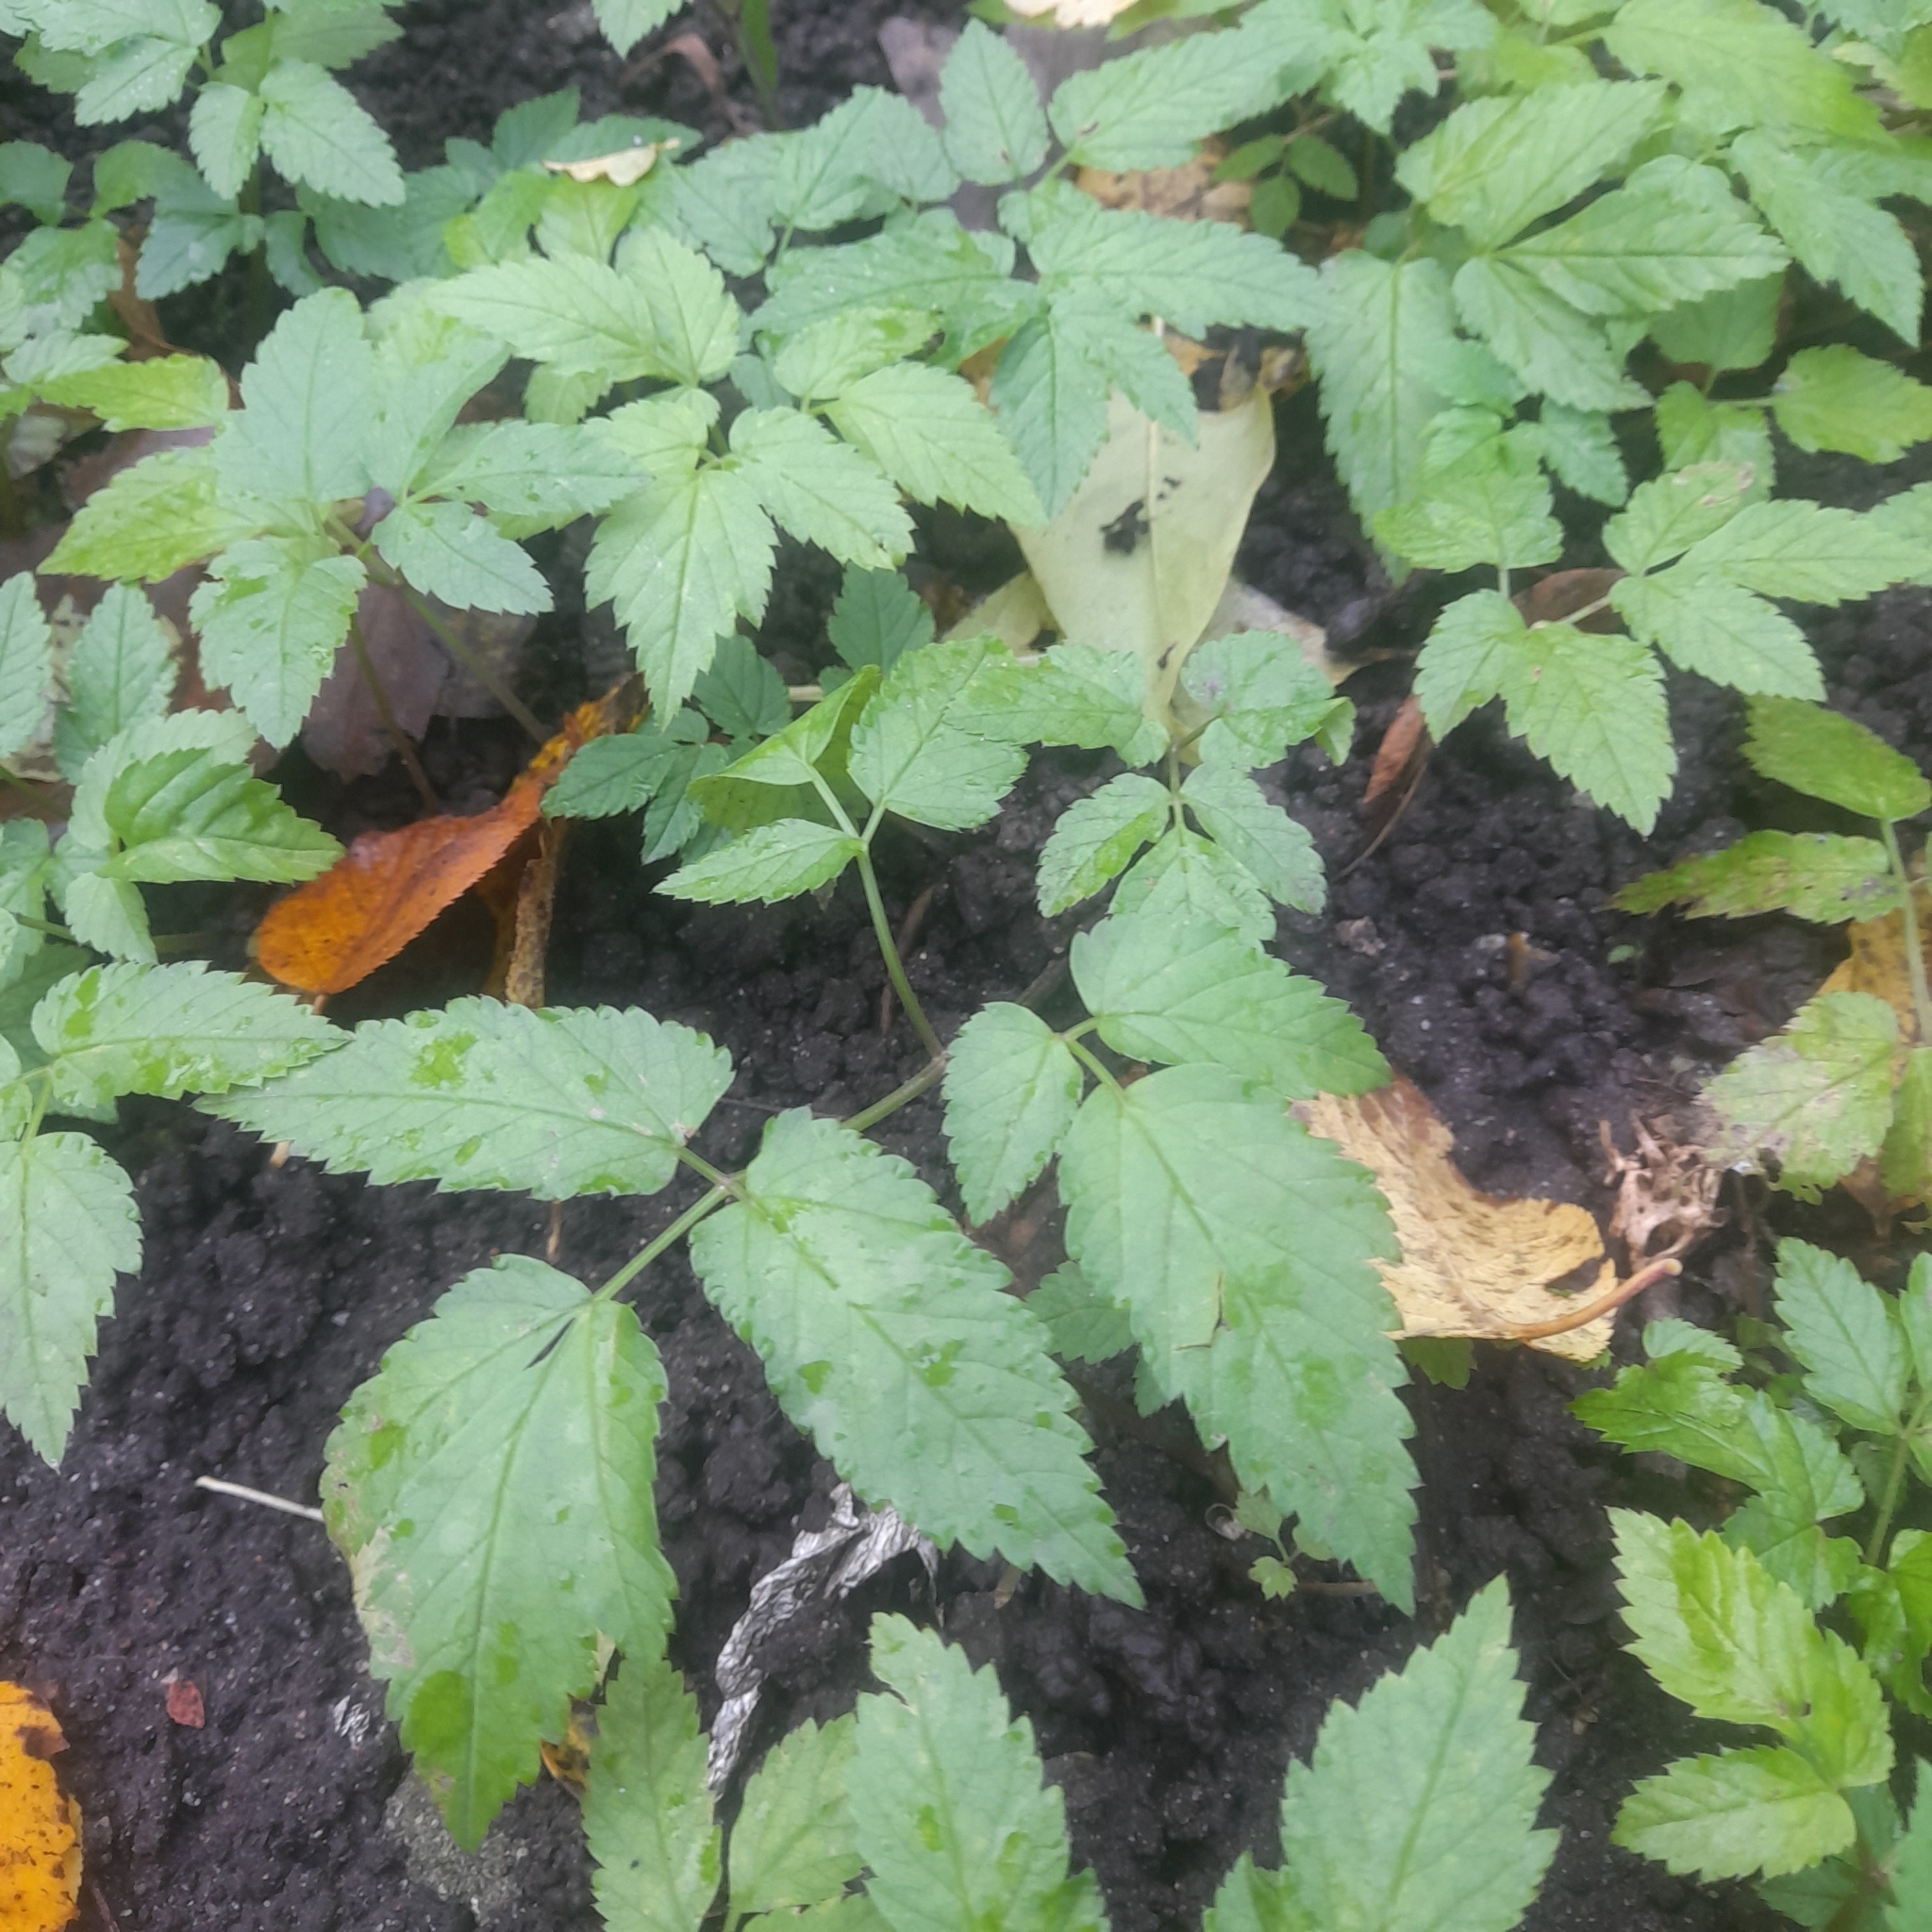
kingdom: Plantae
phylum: Tracheophyta
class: Magnoliopsida
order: Apiales
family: Apiaceae
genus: Aegopodium
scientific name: Aegopodium podagraria
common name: Ground-elder
